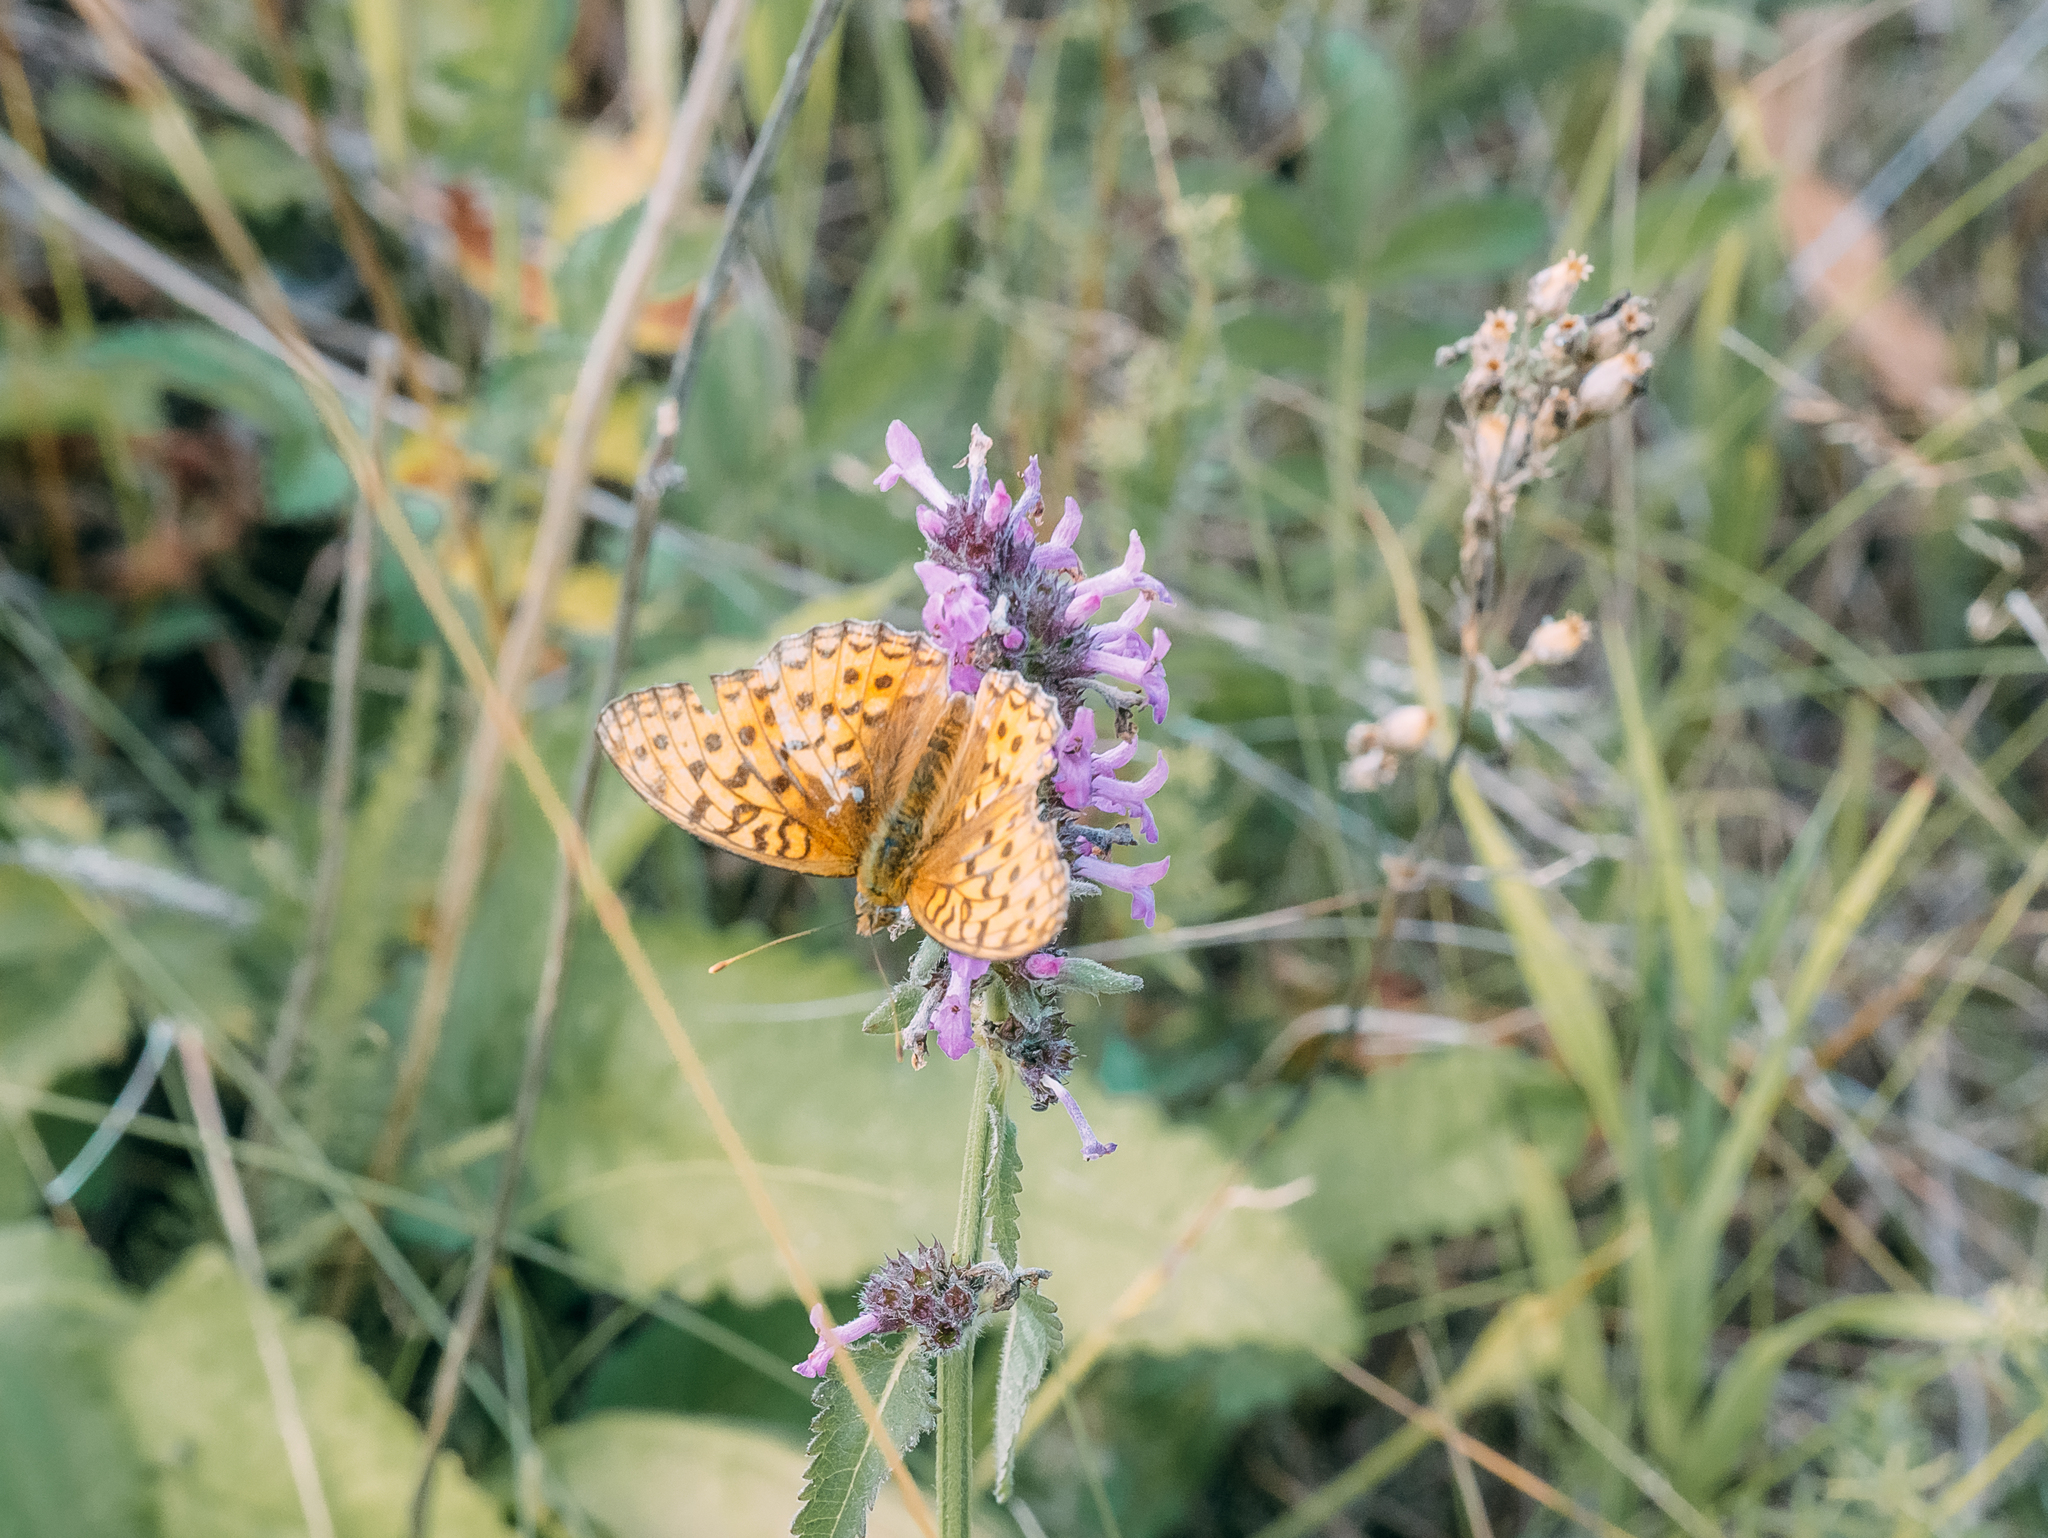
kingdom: Animalia
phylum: Arthropoda
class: Insecta
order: Lepidoptera
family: Nymphalidae
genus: Fabriciana
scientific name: Fabriciana adippe
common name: High brown fritillary
